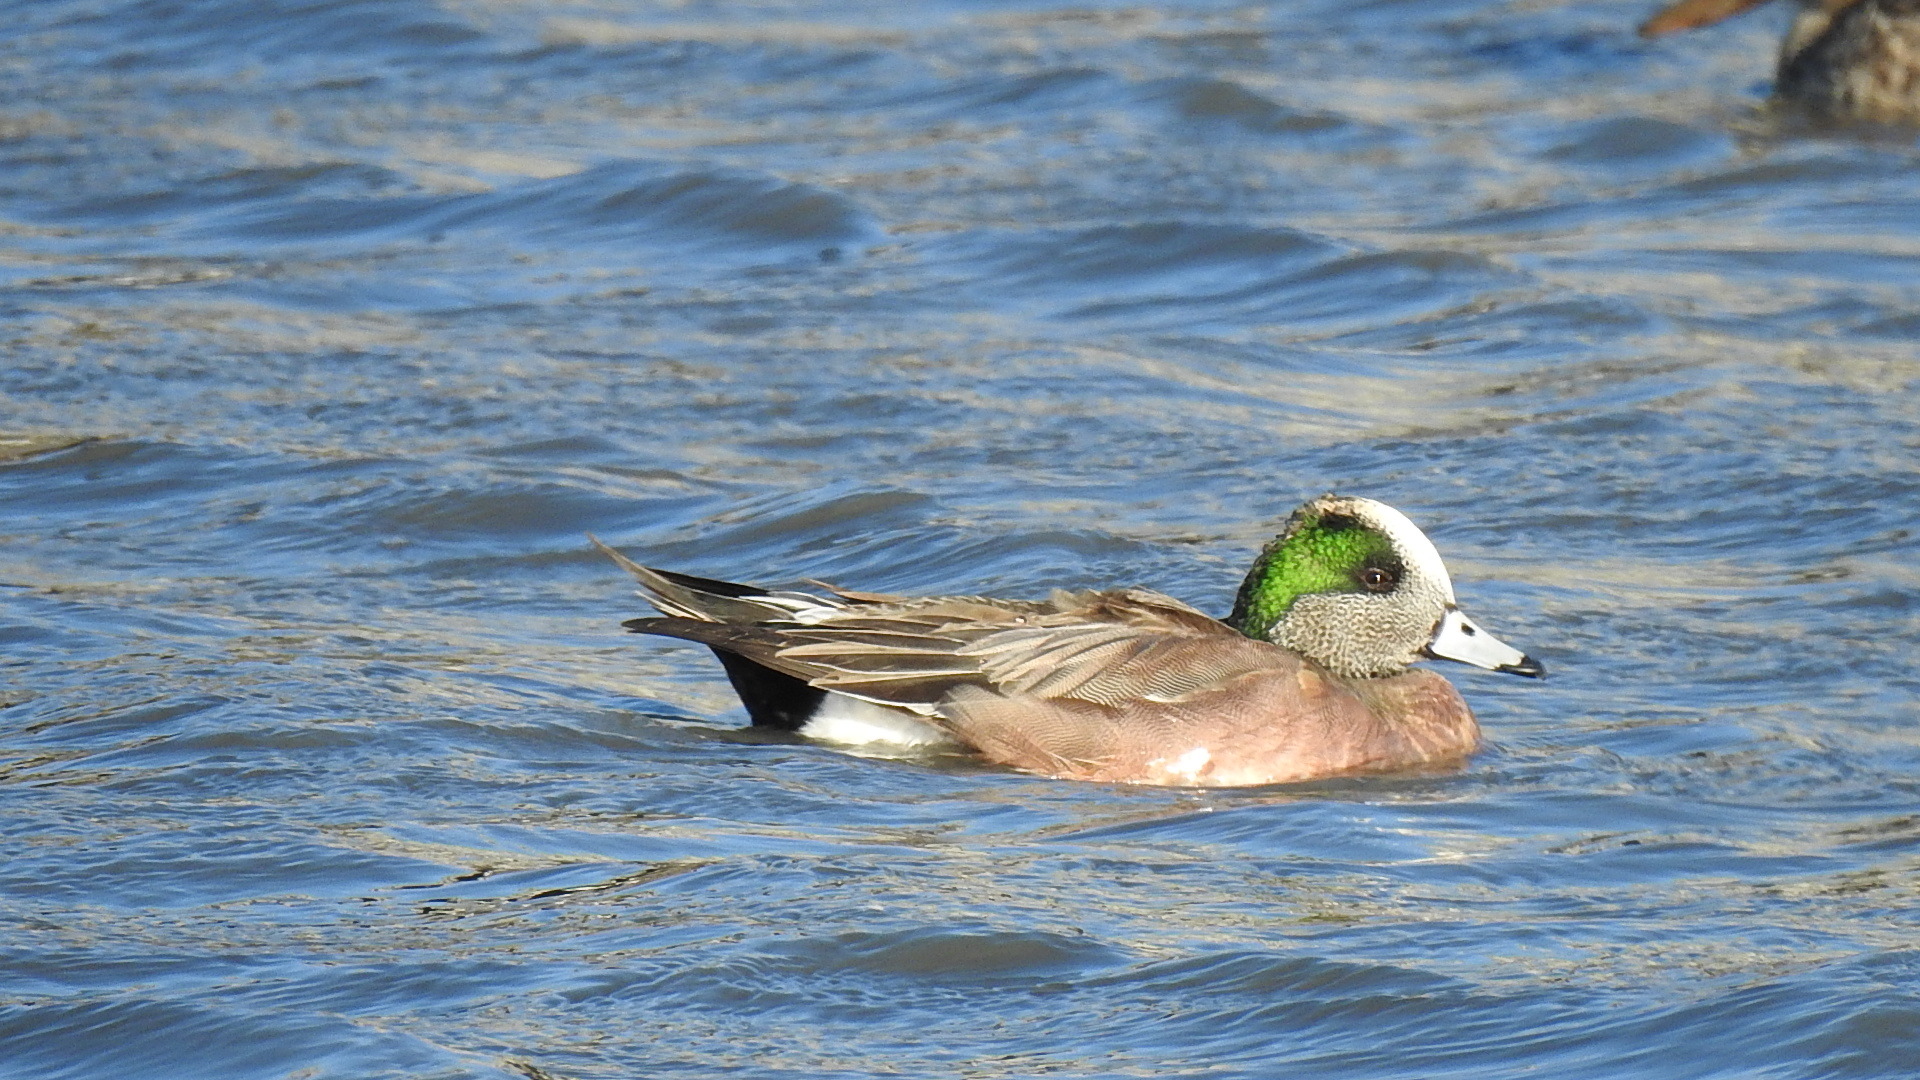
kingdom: Animalia
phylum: Chordata
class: Aves
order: Anseriformes
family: Anatidae
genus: Mareca
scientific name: Mareca americana
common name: American wigeon
